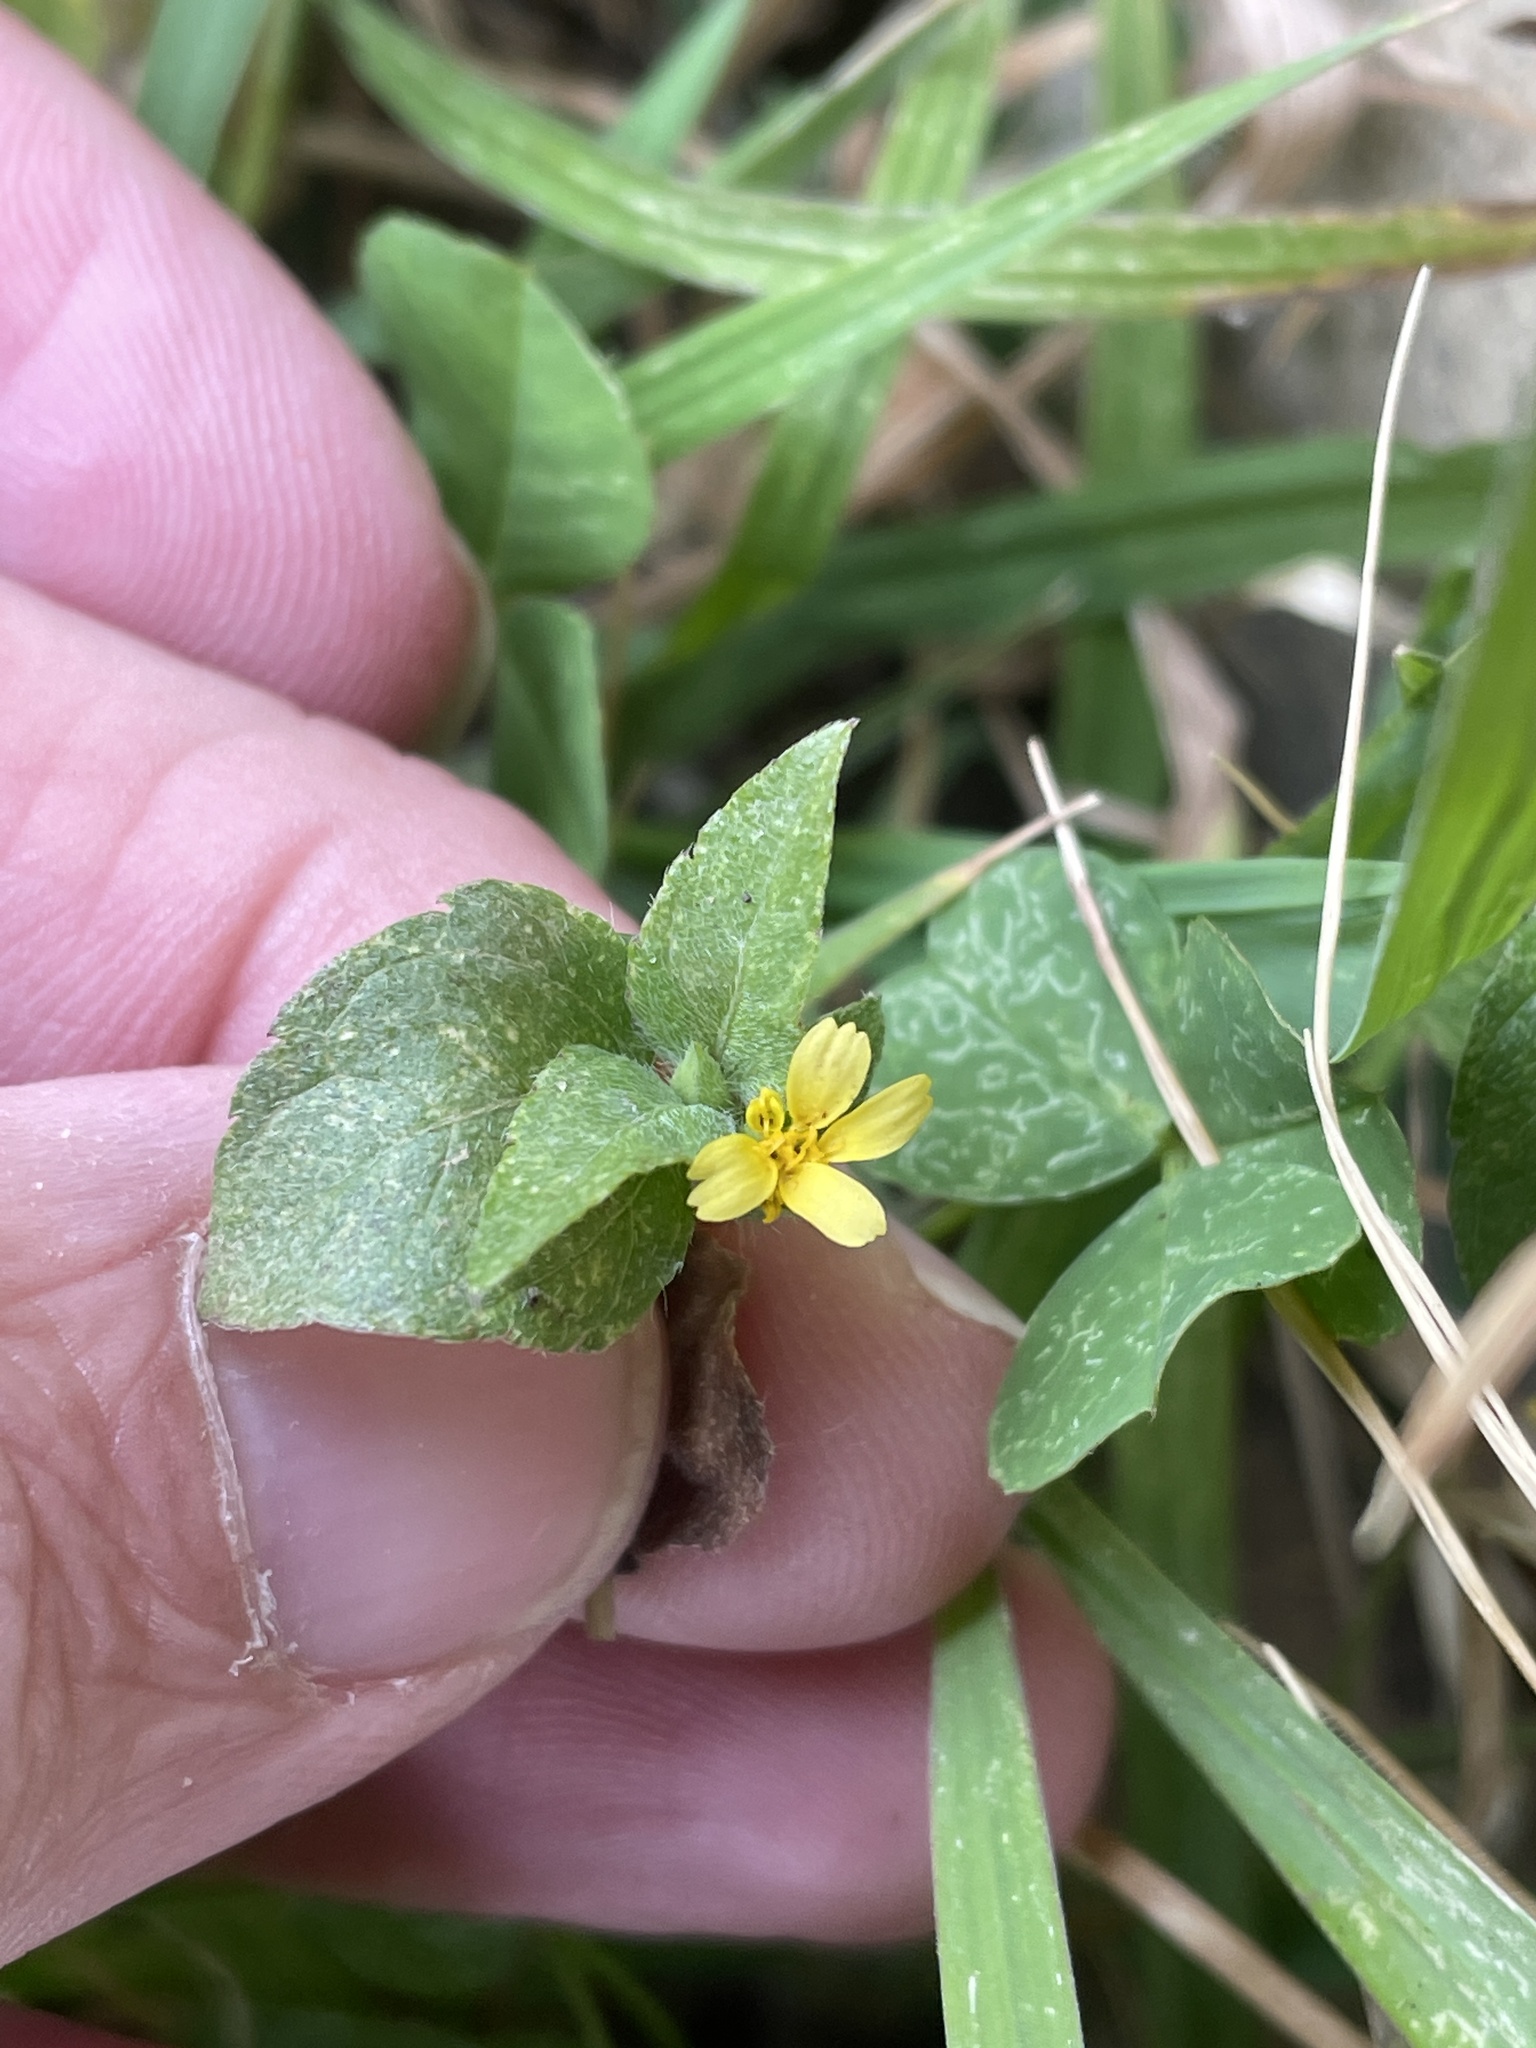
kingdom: Plantae
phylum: Tracheophyta
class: Magnoliopsida
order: Asterales
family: Asteraceae
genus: Calyptocarpus
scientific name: Calyptocarpus vialis
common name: Straggler daisy
